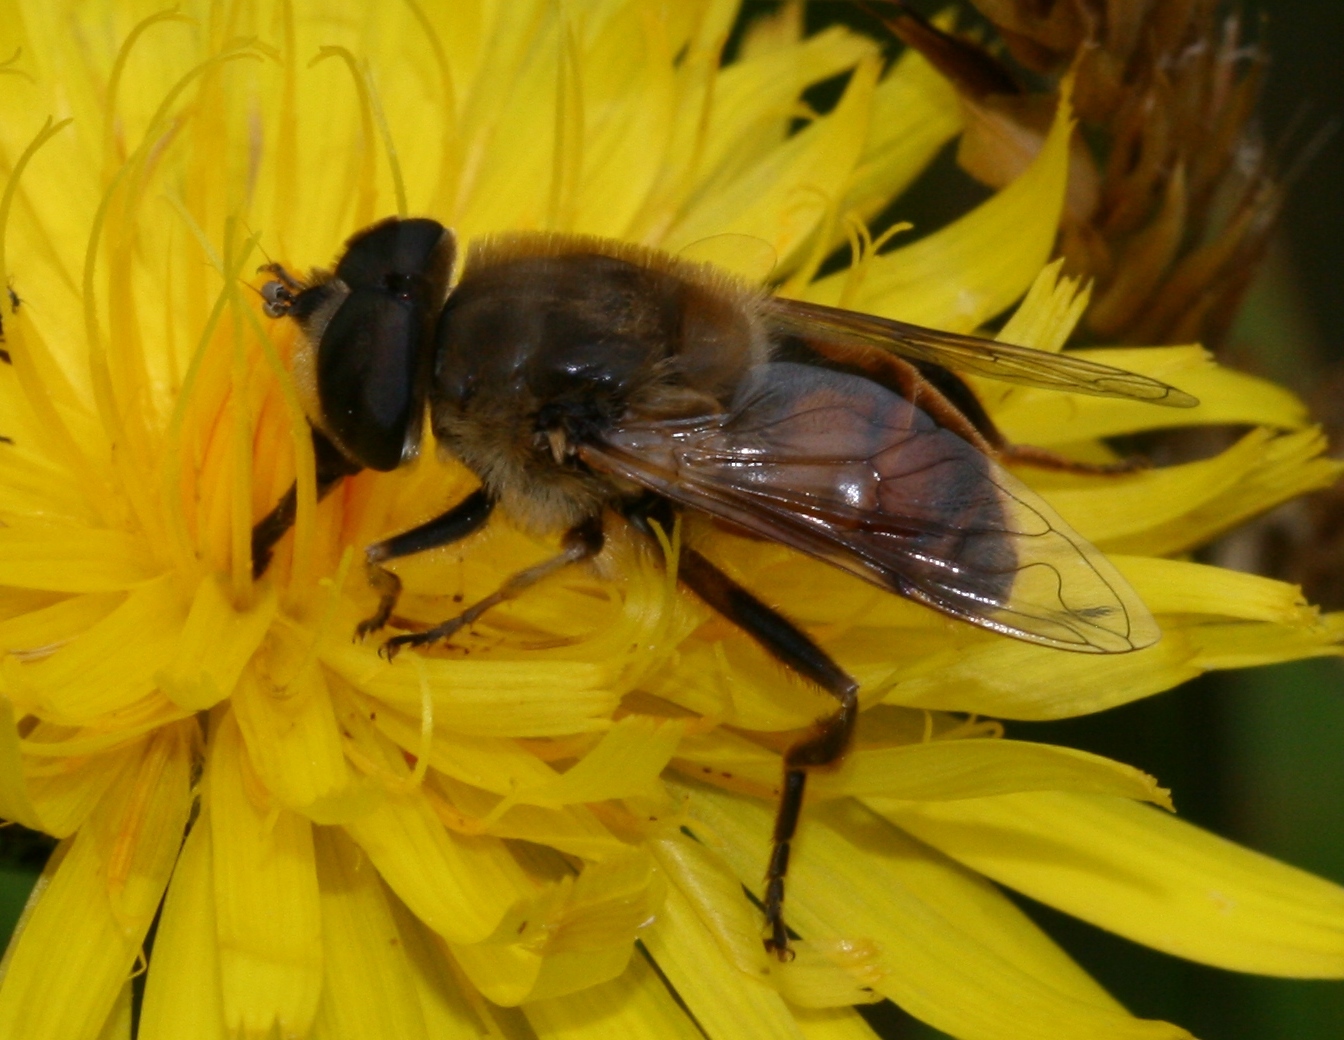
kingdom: Animalia
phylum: Arthropoda
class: Insecta
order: Diptera
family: Syrphidae
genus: Eristalis
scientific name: Eristalis tenax
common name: Drone fly
